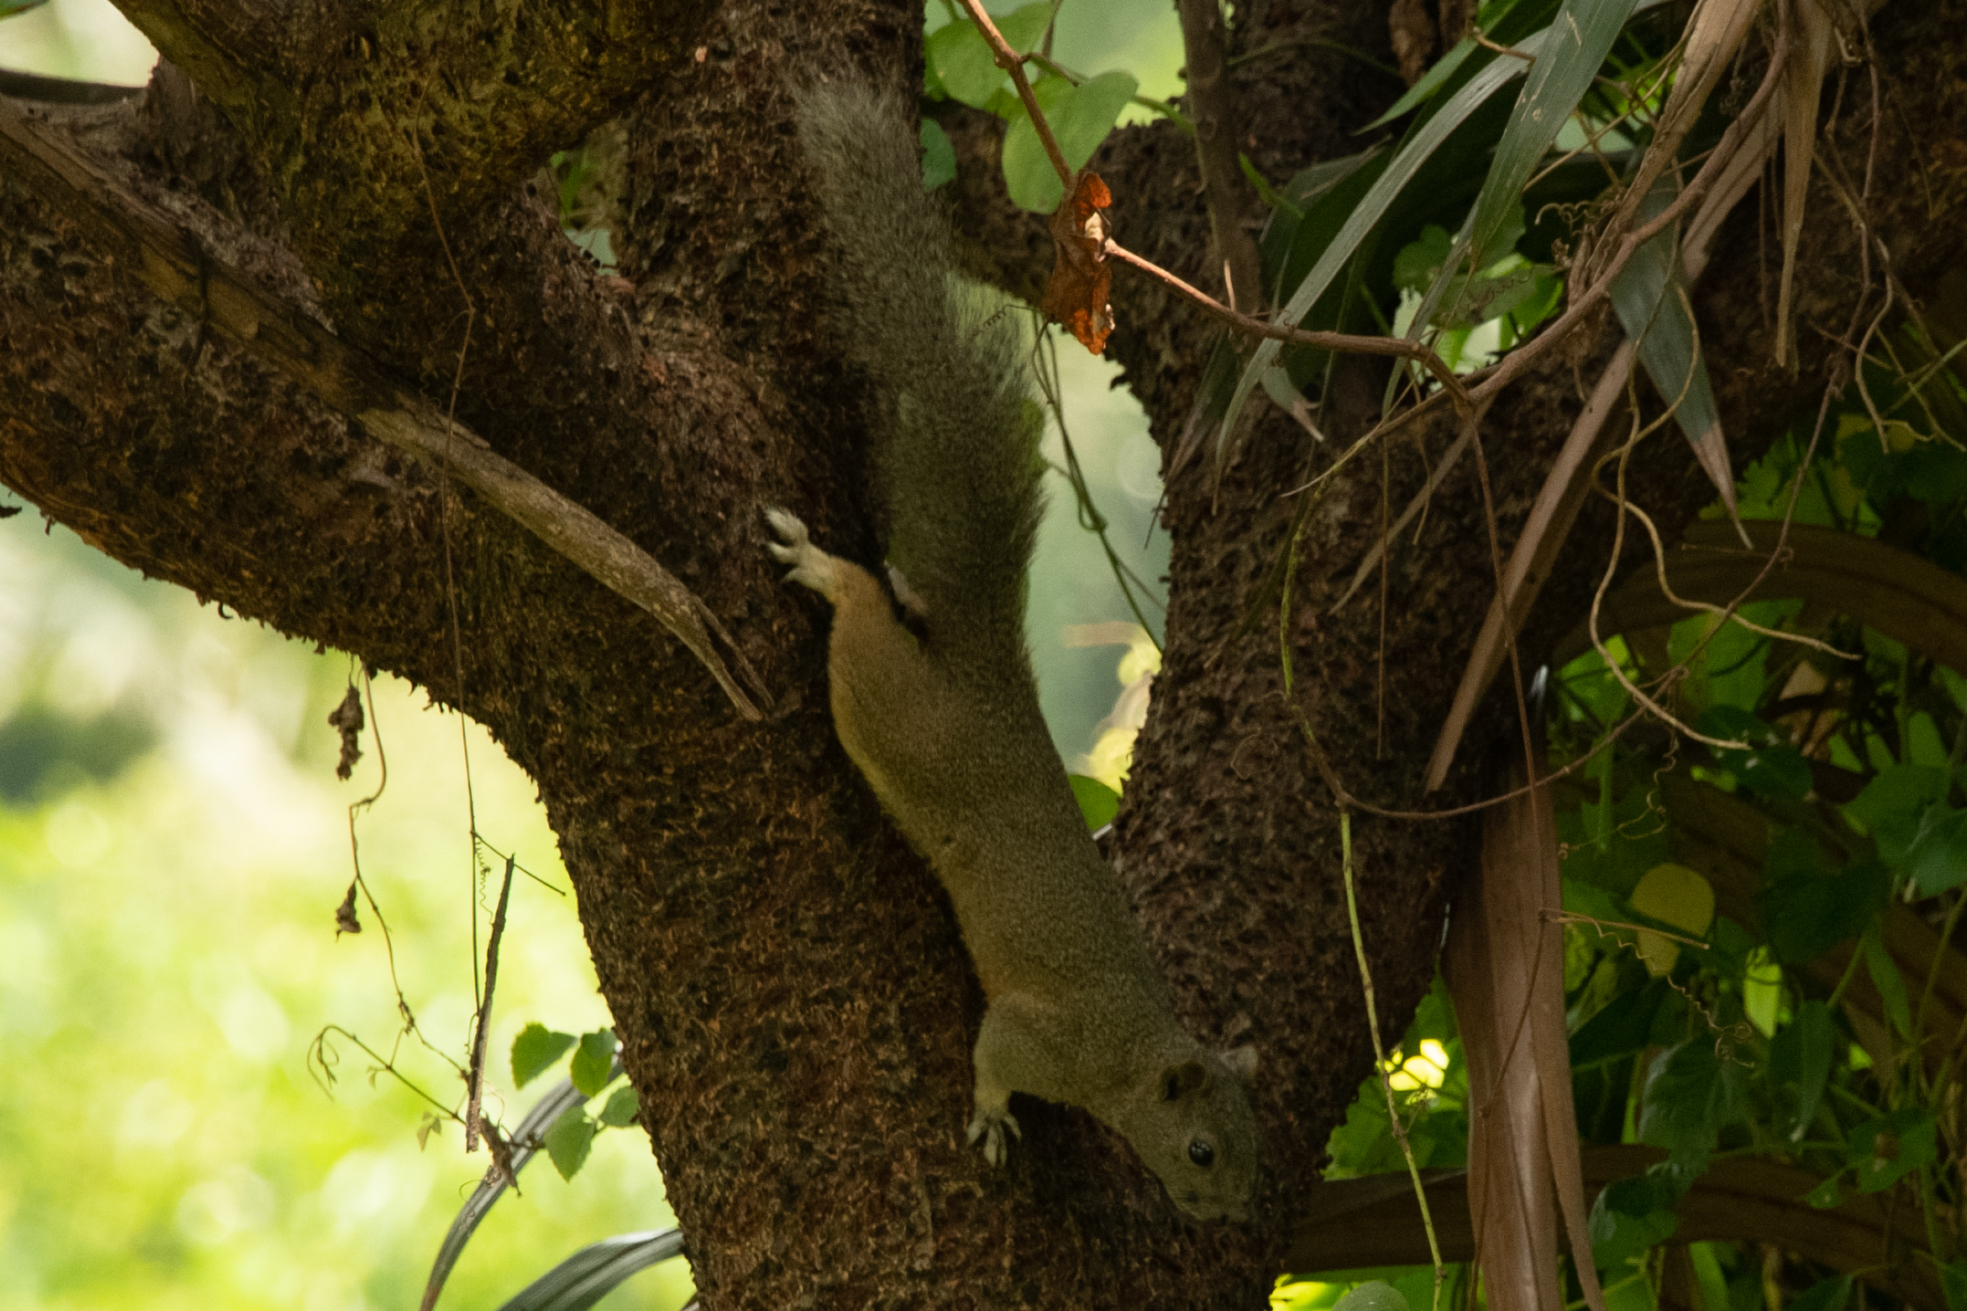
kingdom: Animalia
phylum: Chordata
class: Mammalia
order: Rodentia
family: Sciuridae
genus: Callosciurus
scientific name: Callosciurus erythraeus
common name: Pallas's squirrel
